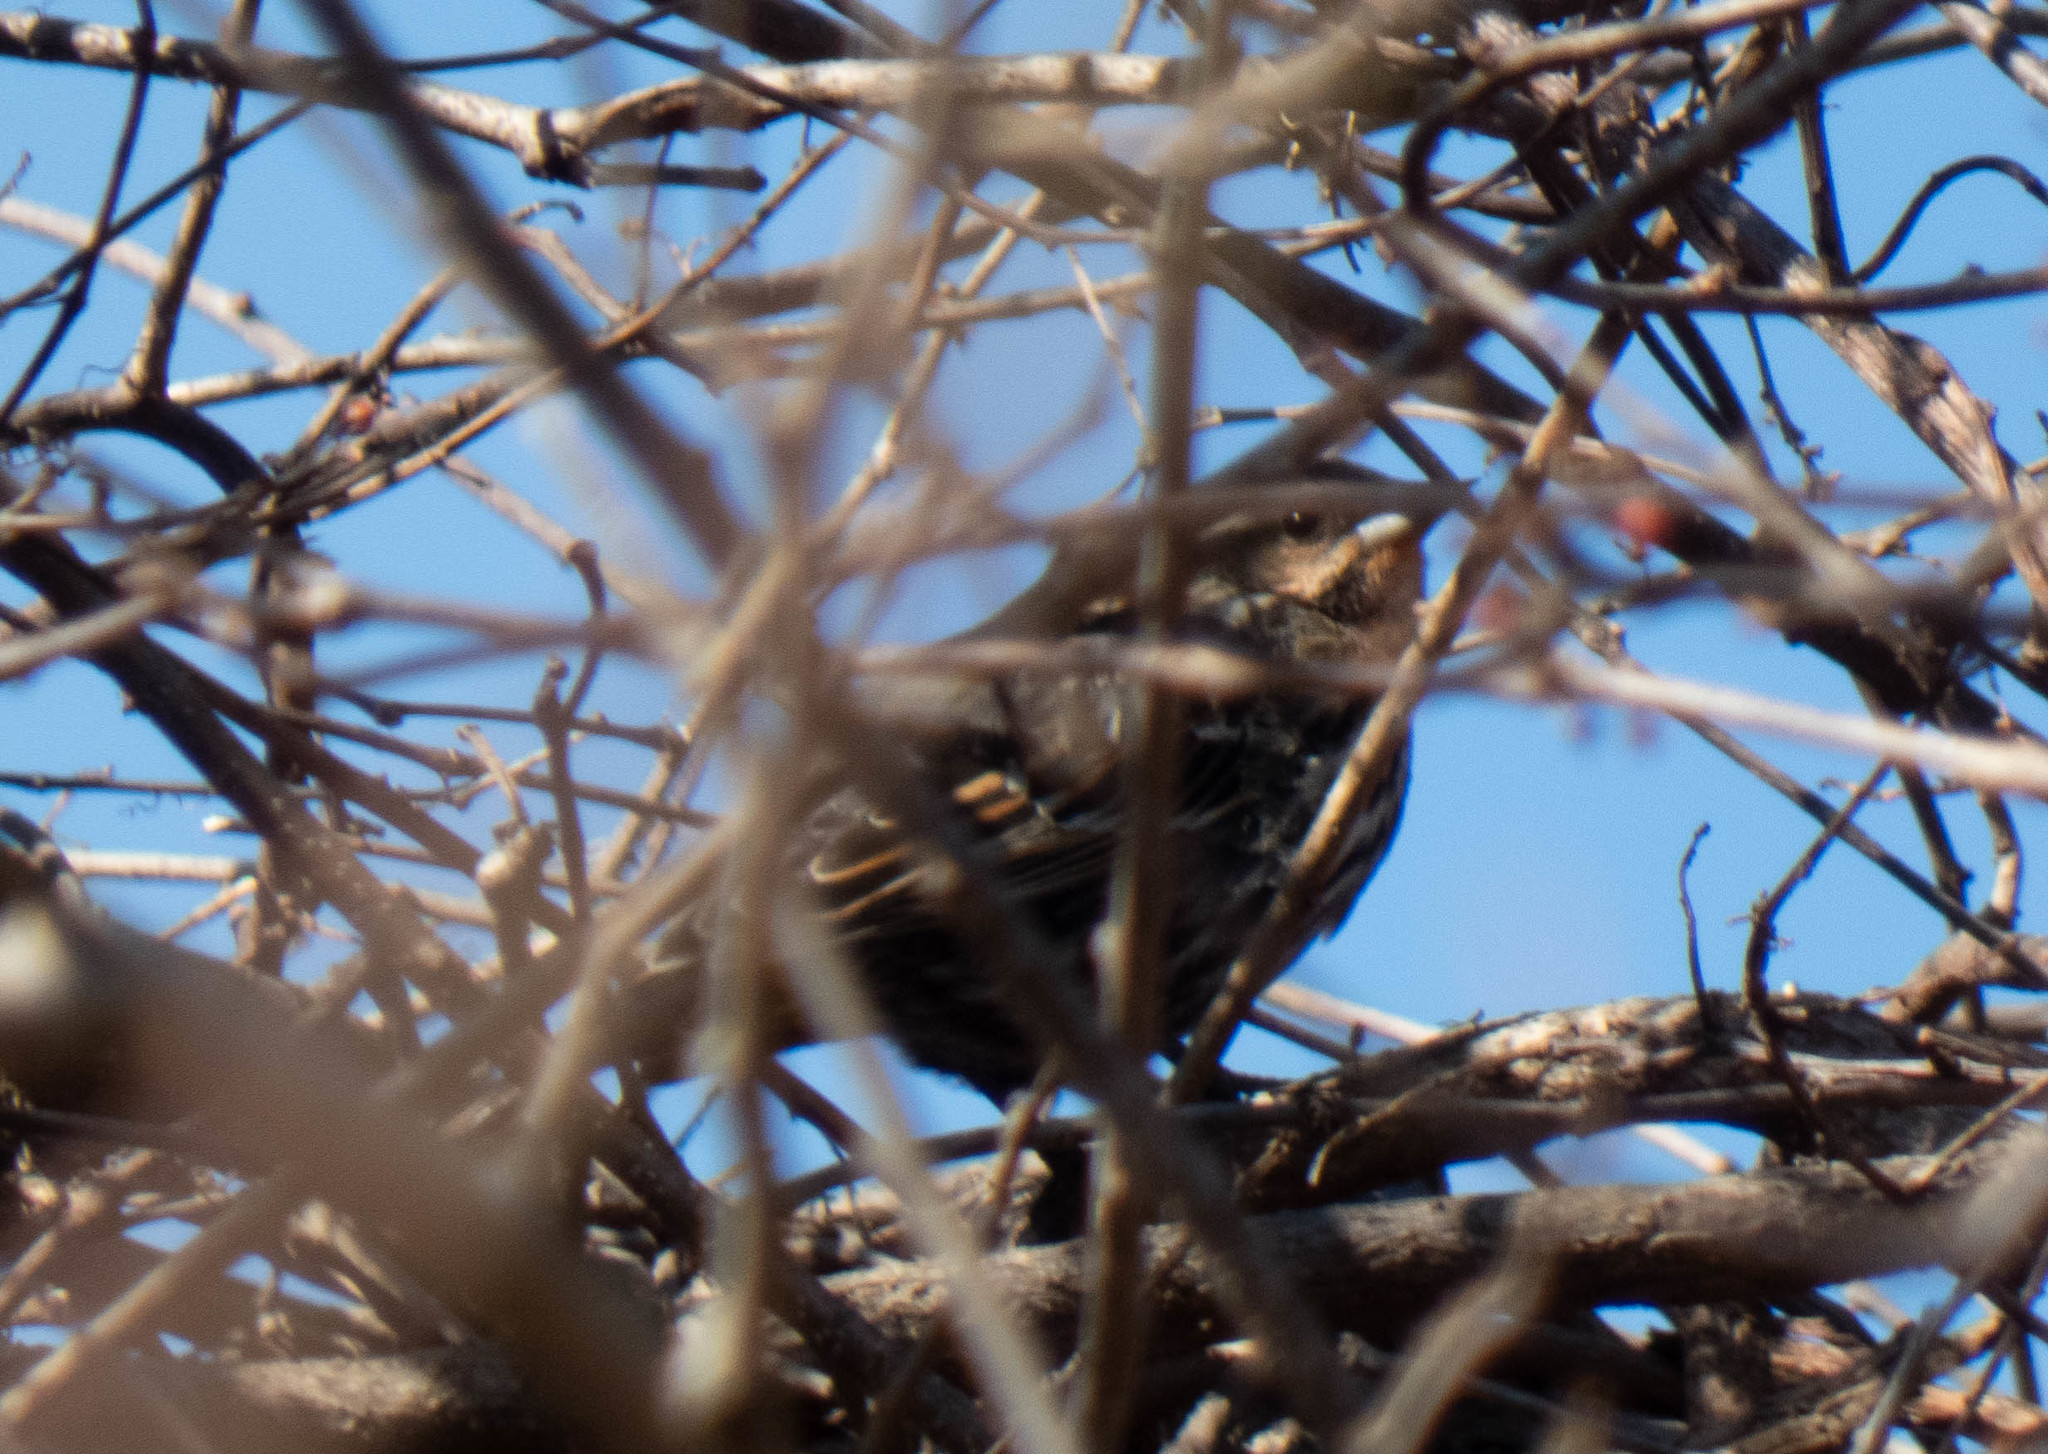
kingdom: Animalia
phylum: Chordata
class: Aves
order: Passeriformes
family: Icteridae
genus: Agelaius
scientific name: Agelaius phoeniceus
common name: Red-winged blackbird
